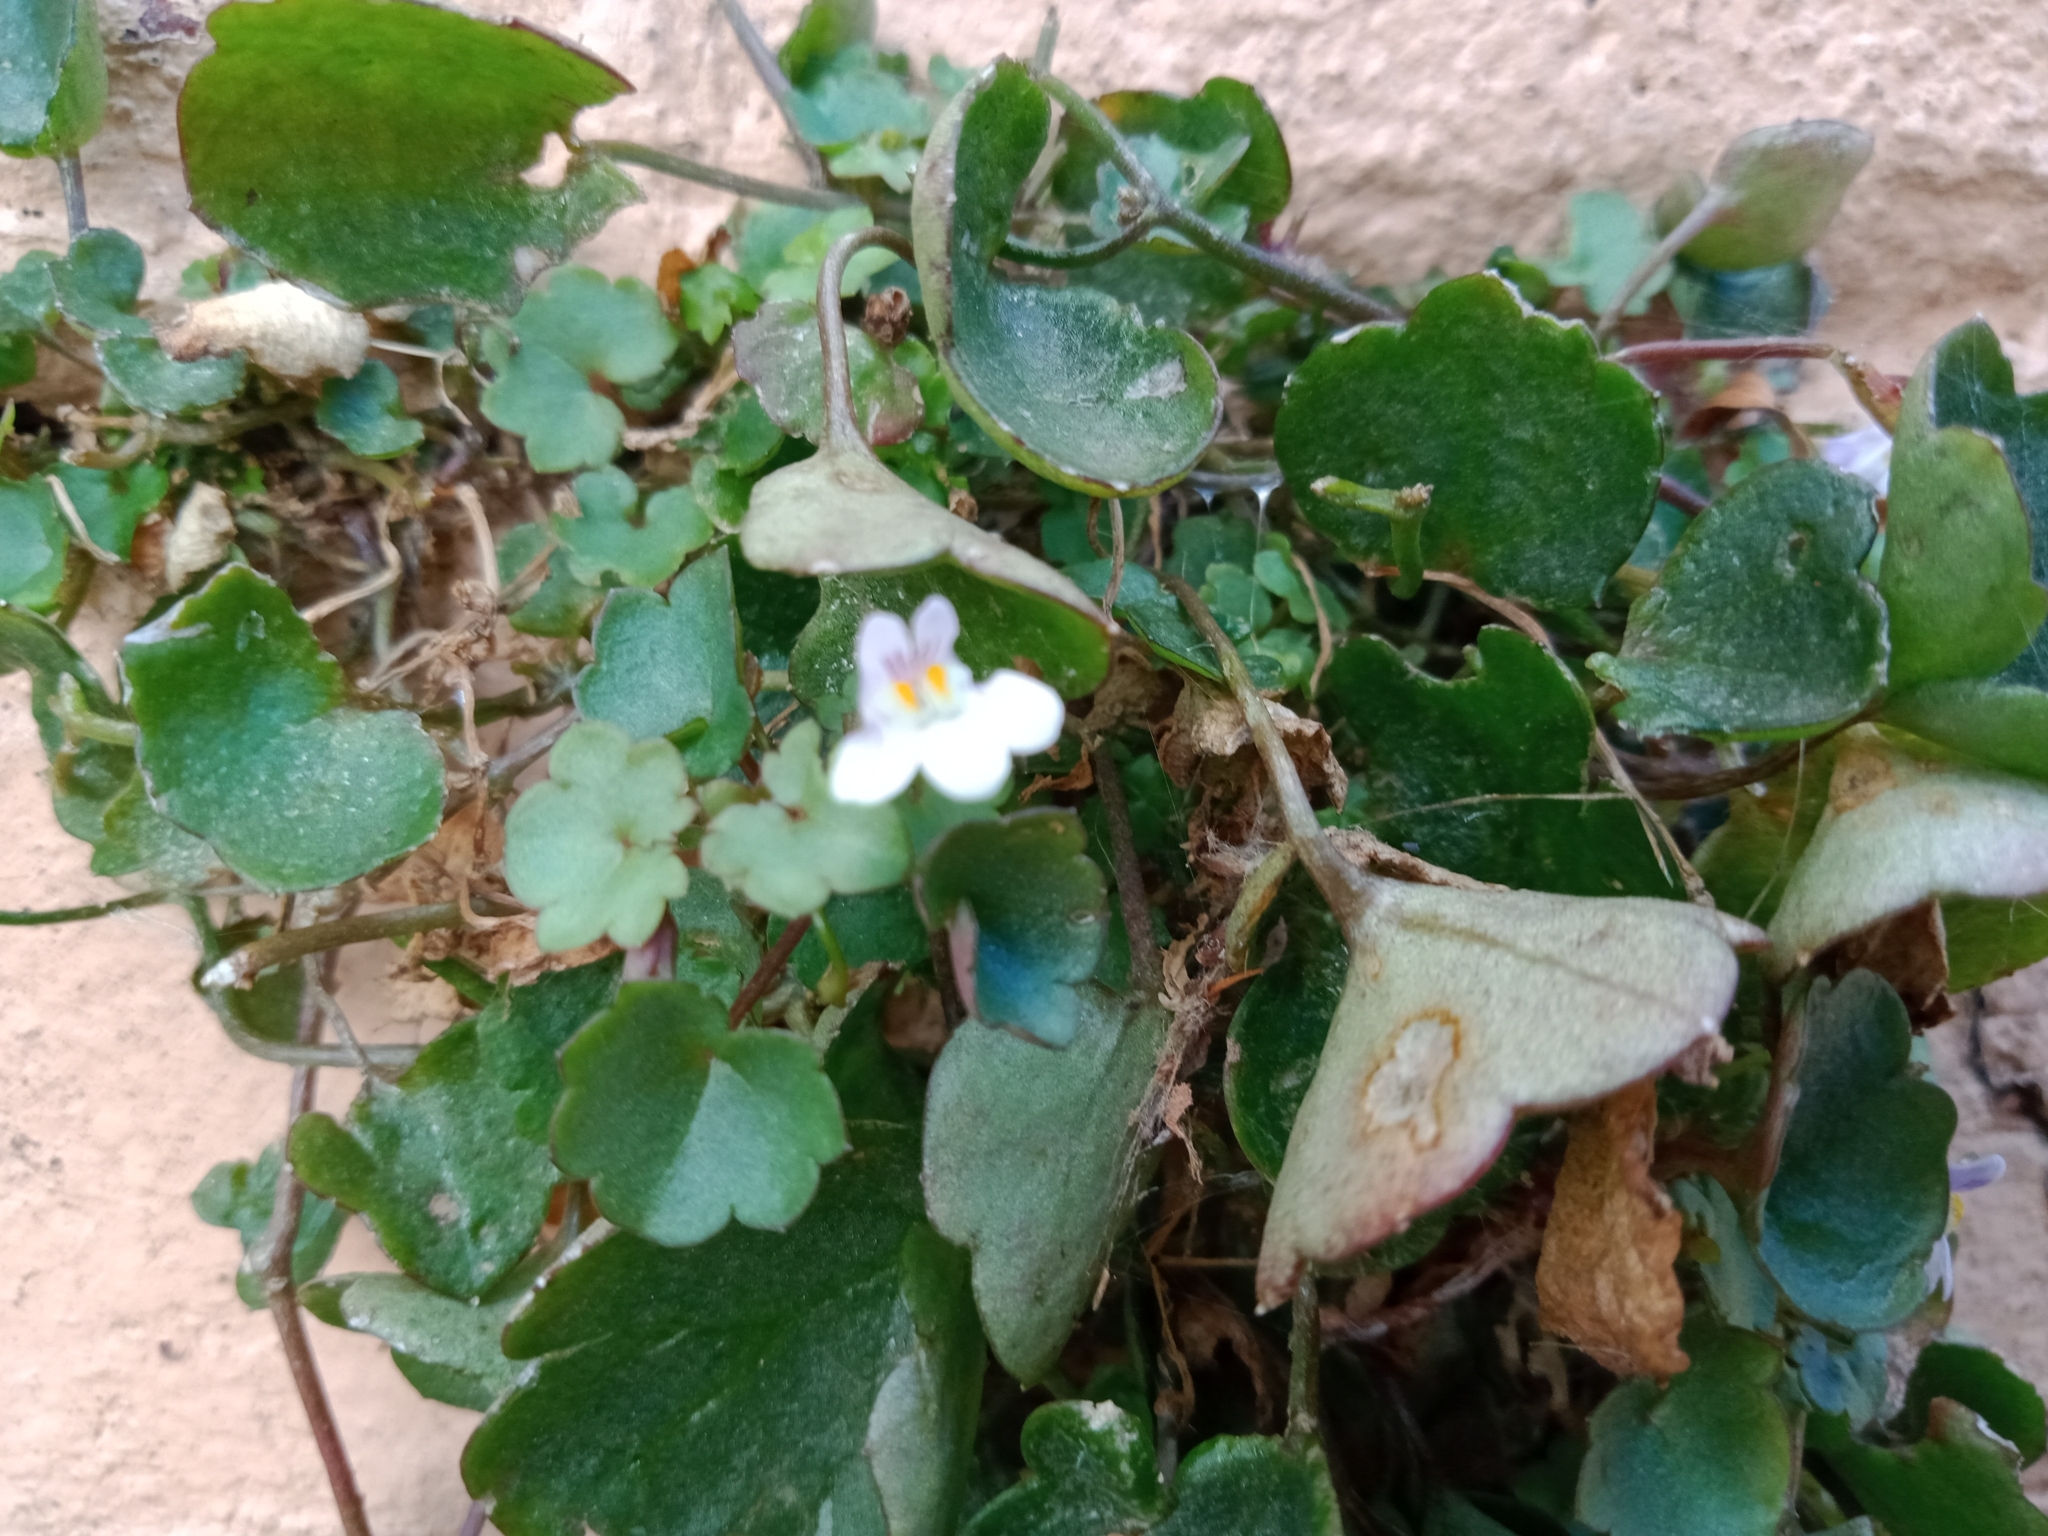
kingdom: Plantae
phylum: Tracheophyta
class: Magnoliopsida
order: Lamiales
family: Plantaginaceae
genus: Cymbalaria
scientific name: Cymbalaria muralis
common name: Ivy-leaved toadflax
